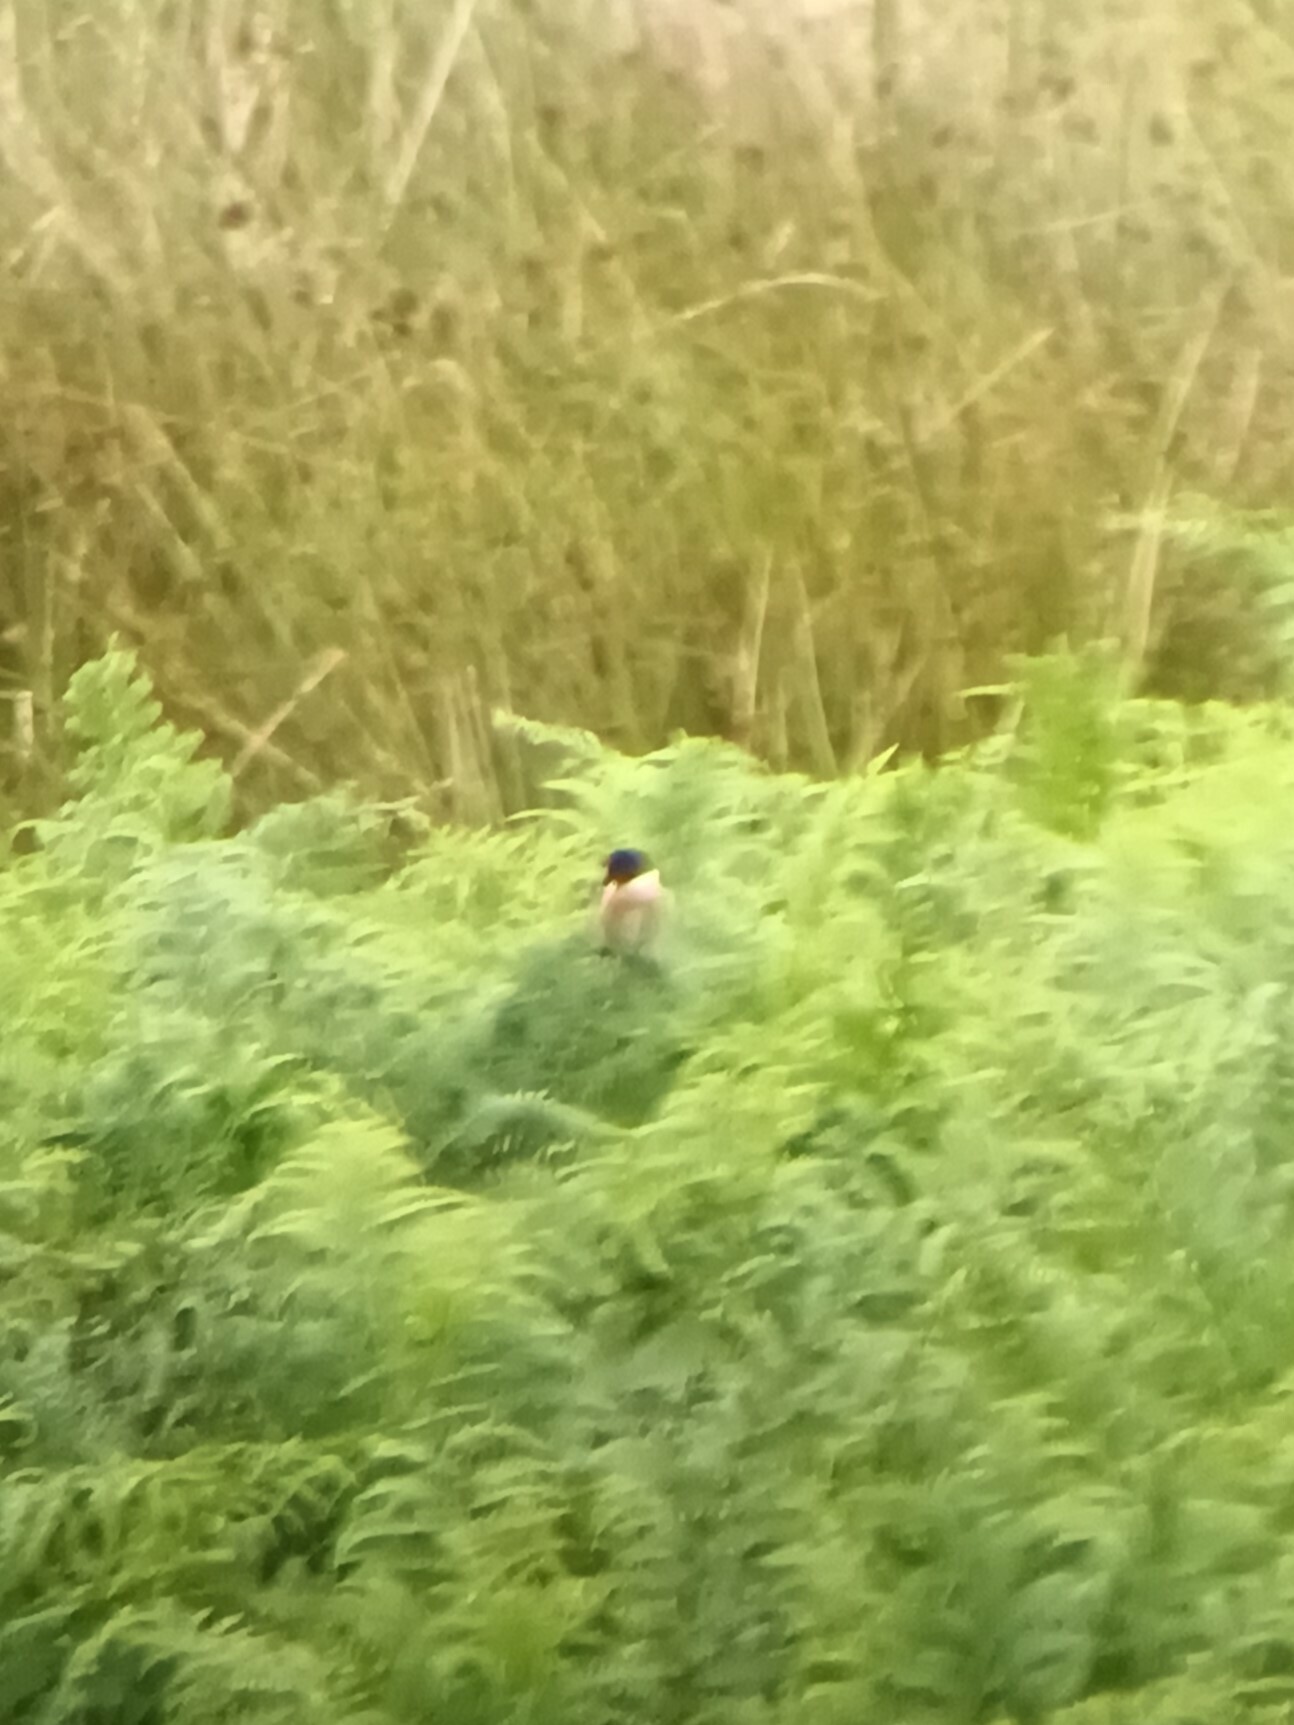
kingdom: Animalia
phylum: Chordata
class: Aves
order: Passeriformes
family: Muscicapidae
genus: Saxicola
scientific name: Saxicola rubicola
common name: European stonechat
